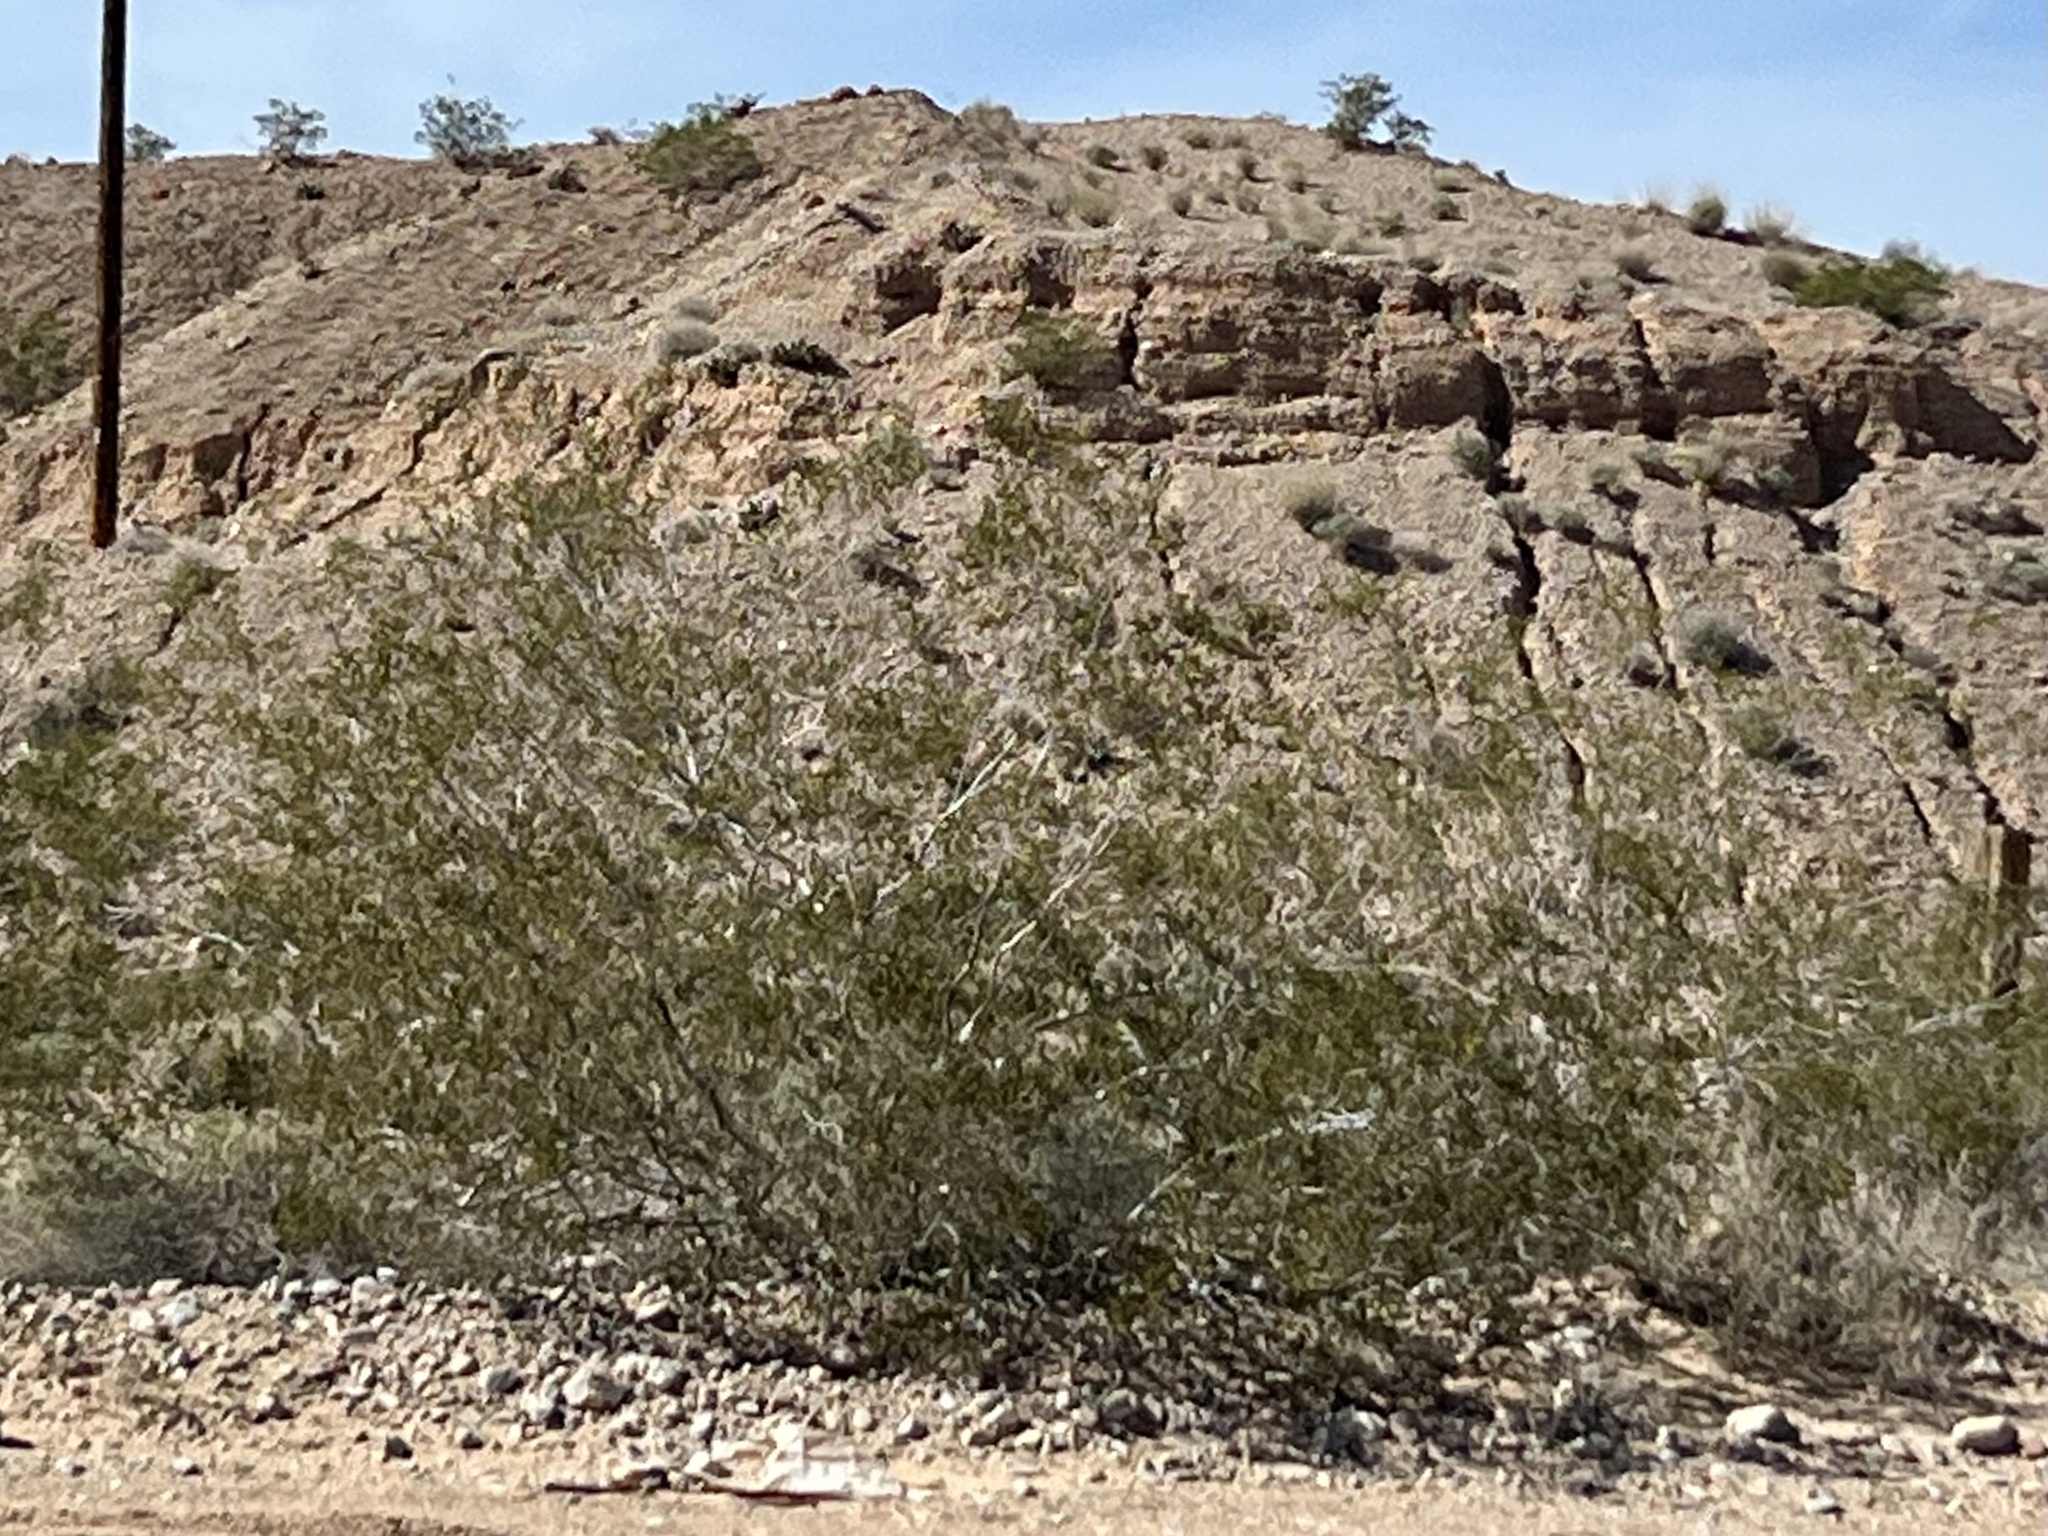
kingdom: Plantae
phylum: Tracheophyta
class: Magnoliopsida
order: Zygophyllales
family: Zygophyllaceae
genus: Larrea
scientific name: Larrea tridentata
